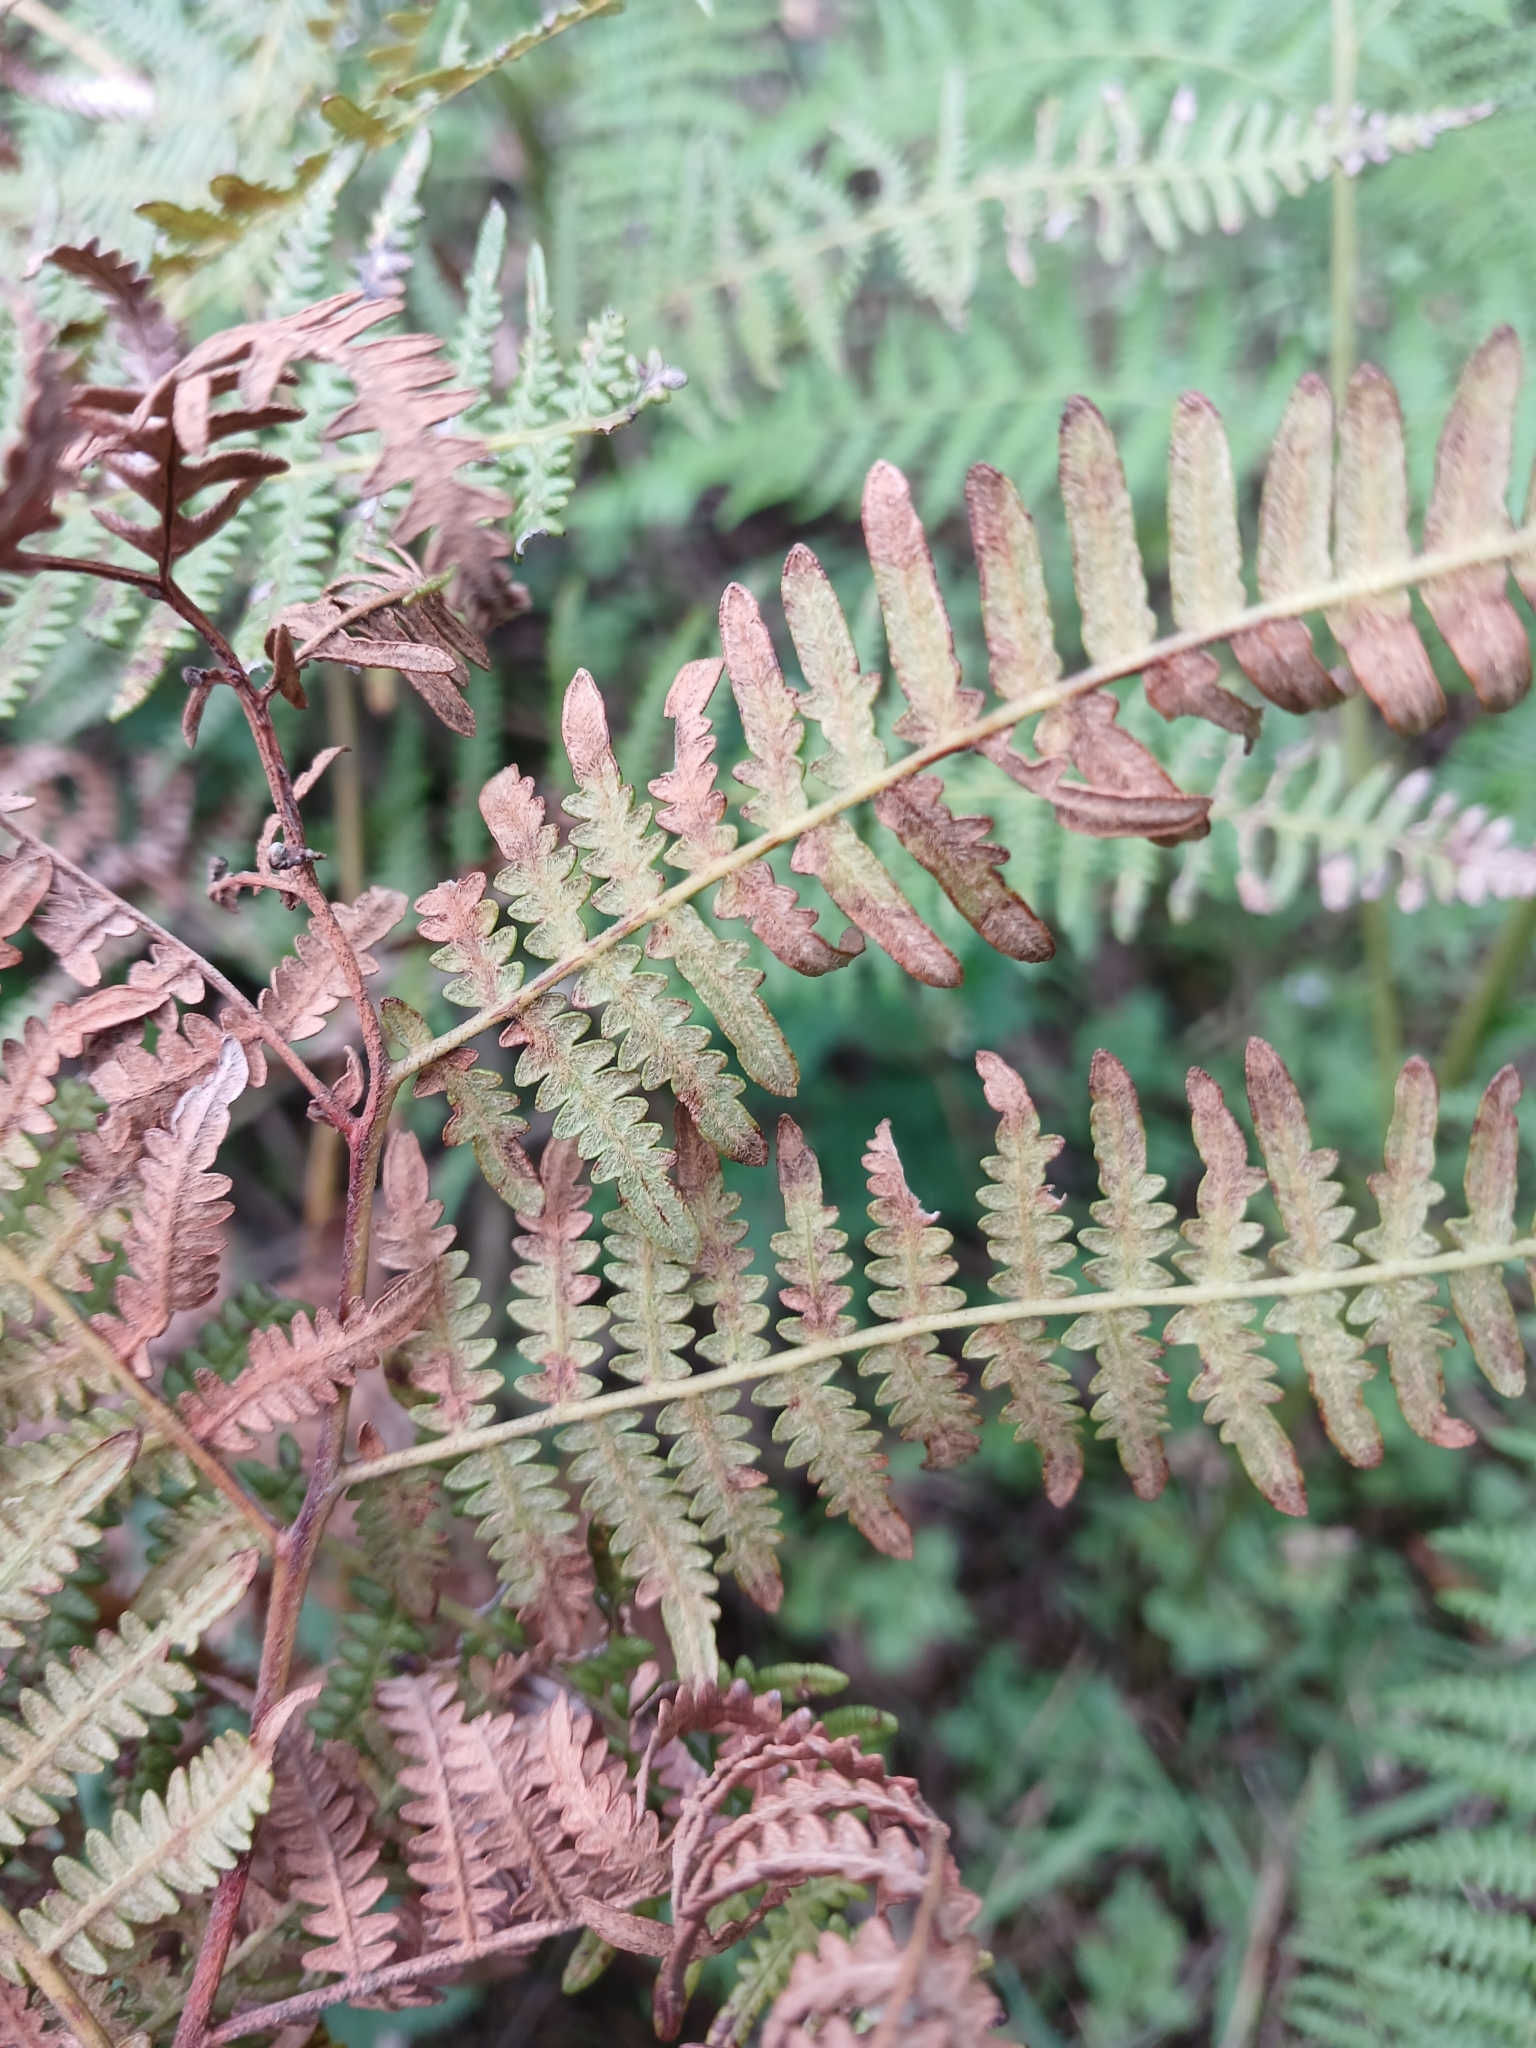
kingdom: Plantae
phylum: Tracheophyta
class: Polypodiopsida
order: Polypodiales
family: Dennstaedtiaceae
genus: Pteridium
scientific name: Pteridium aquilinum
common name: Bracken
